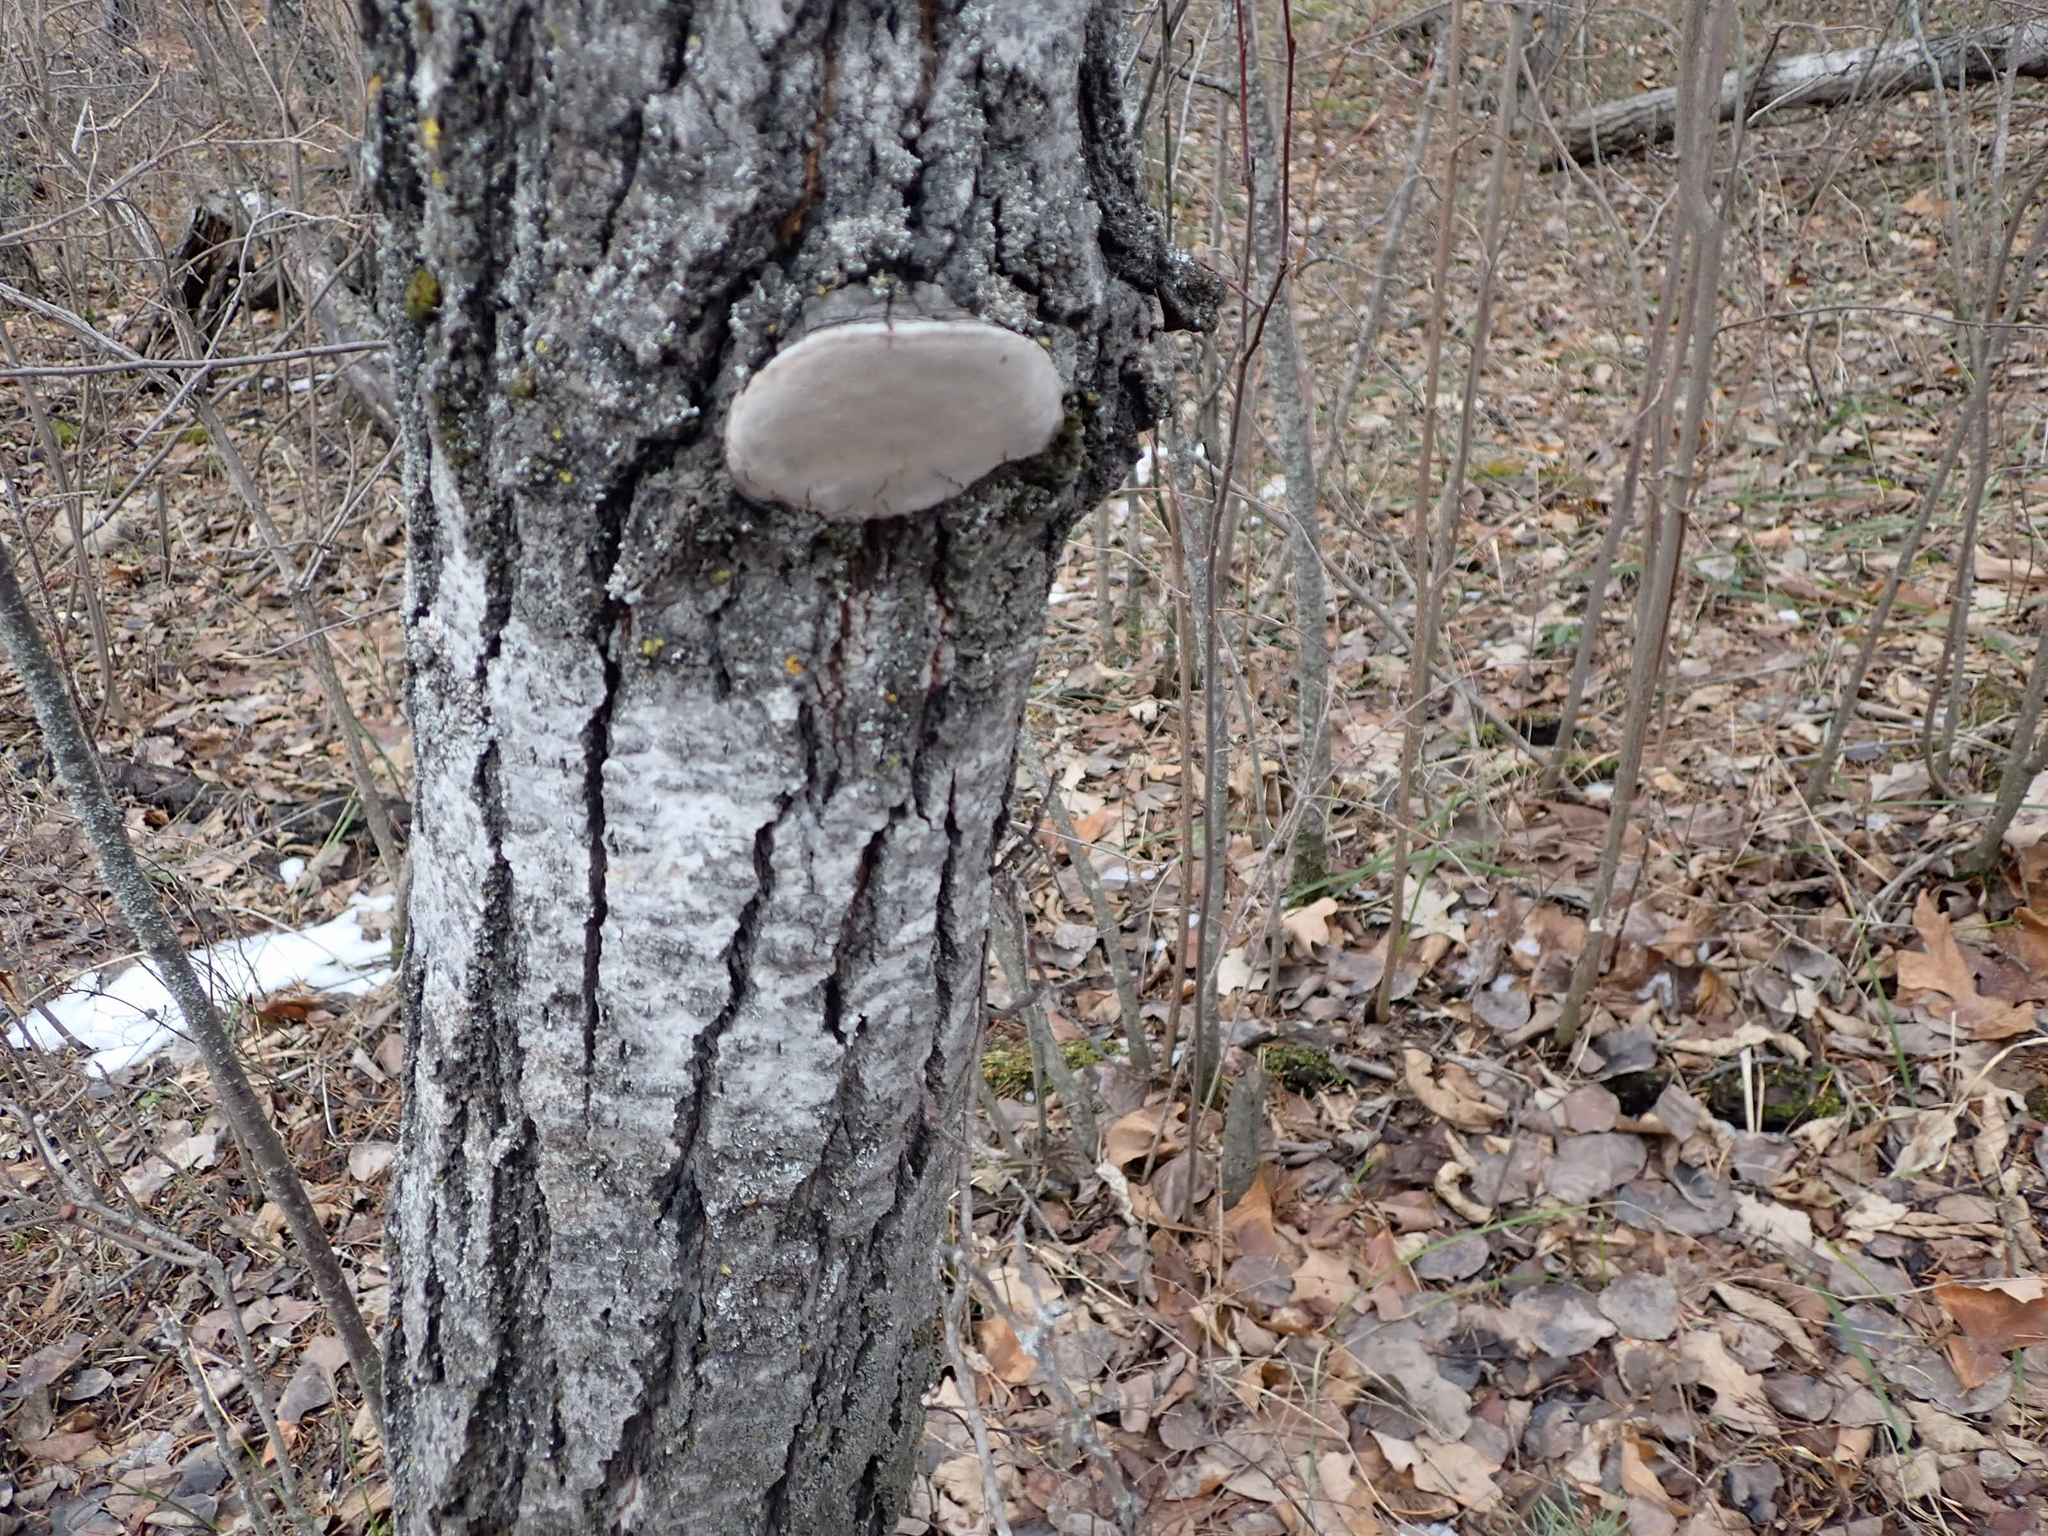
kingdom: Fungi
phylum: Basidiomycota
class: Agaricomycetes
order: Hymenochaetales
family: Hymenochaetaceae
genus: Phellinus
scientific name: Phellinus tremulae
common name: Aspen bracket
